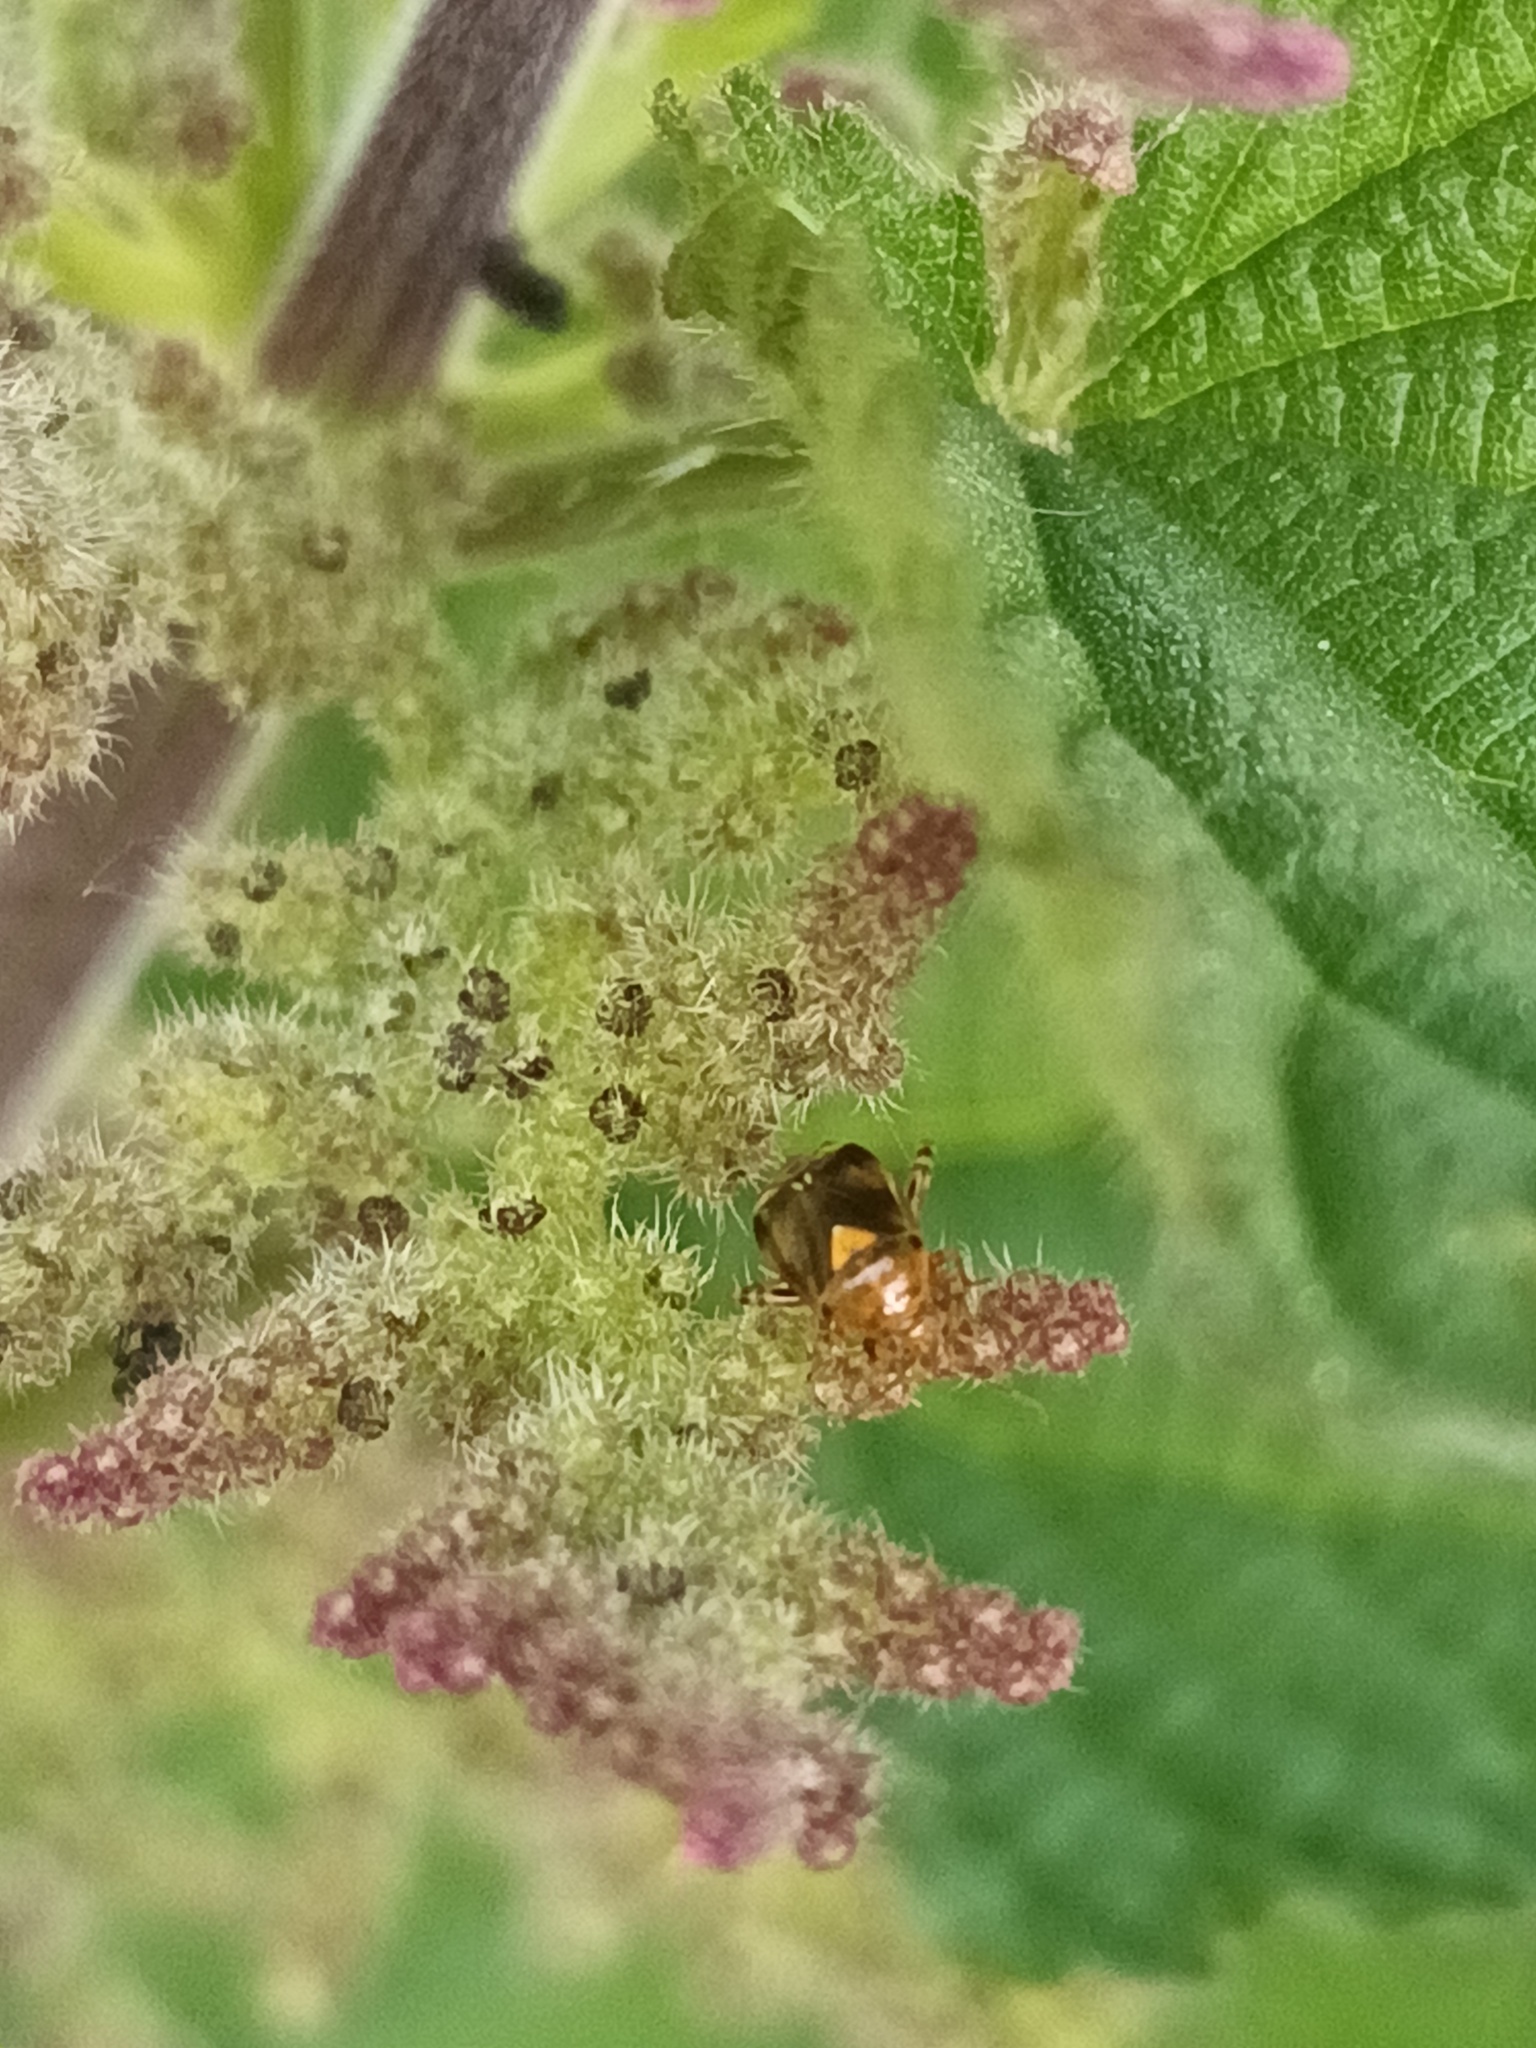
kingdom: Animalia
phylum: Arthropoda
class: Insecta
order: Hemiptera
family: Miridae
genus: Liocoris
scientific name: Liocoris tripustulatus
